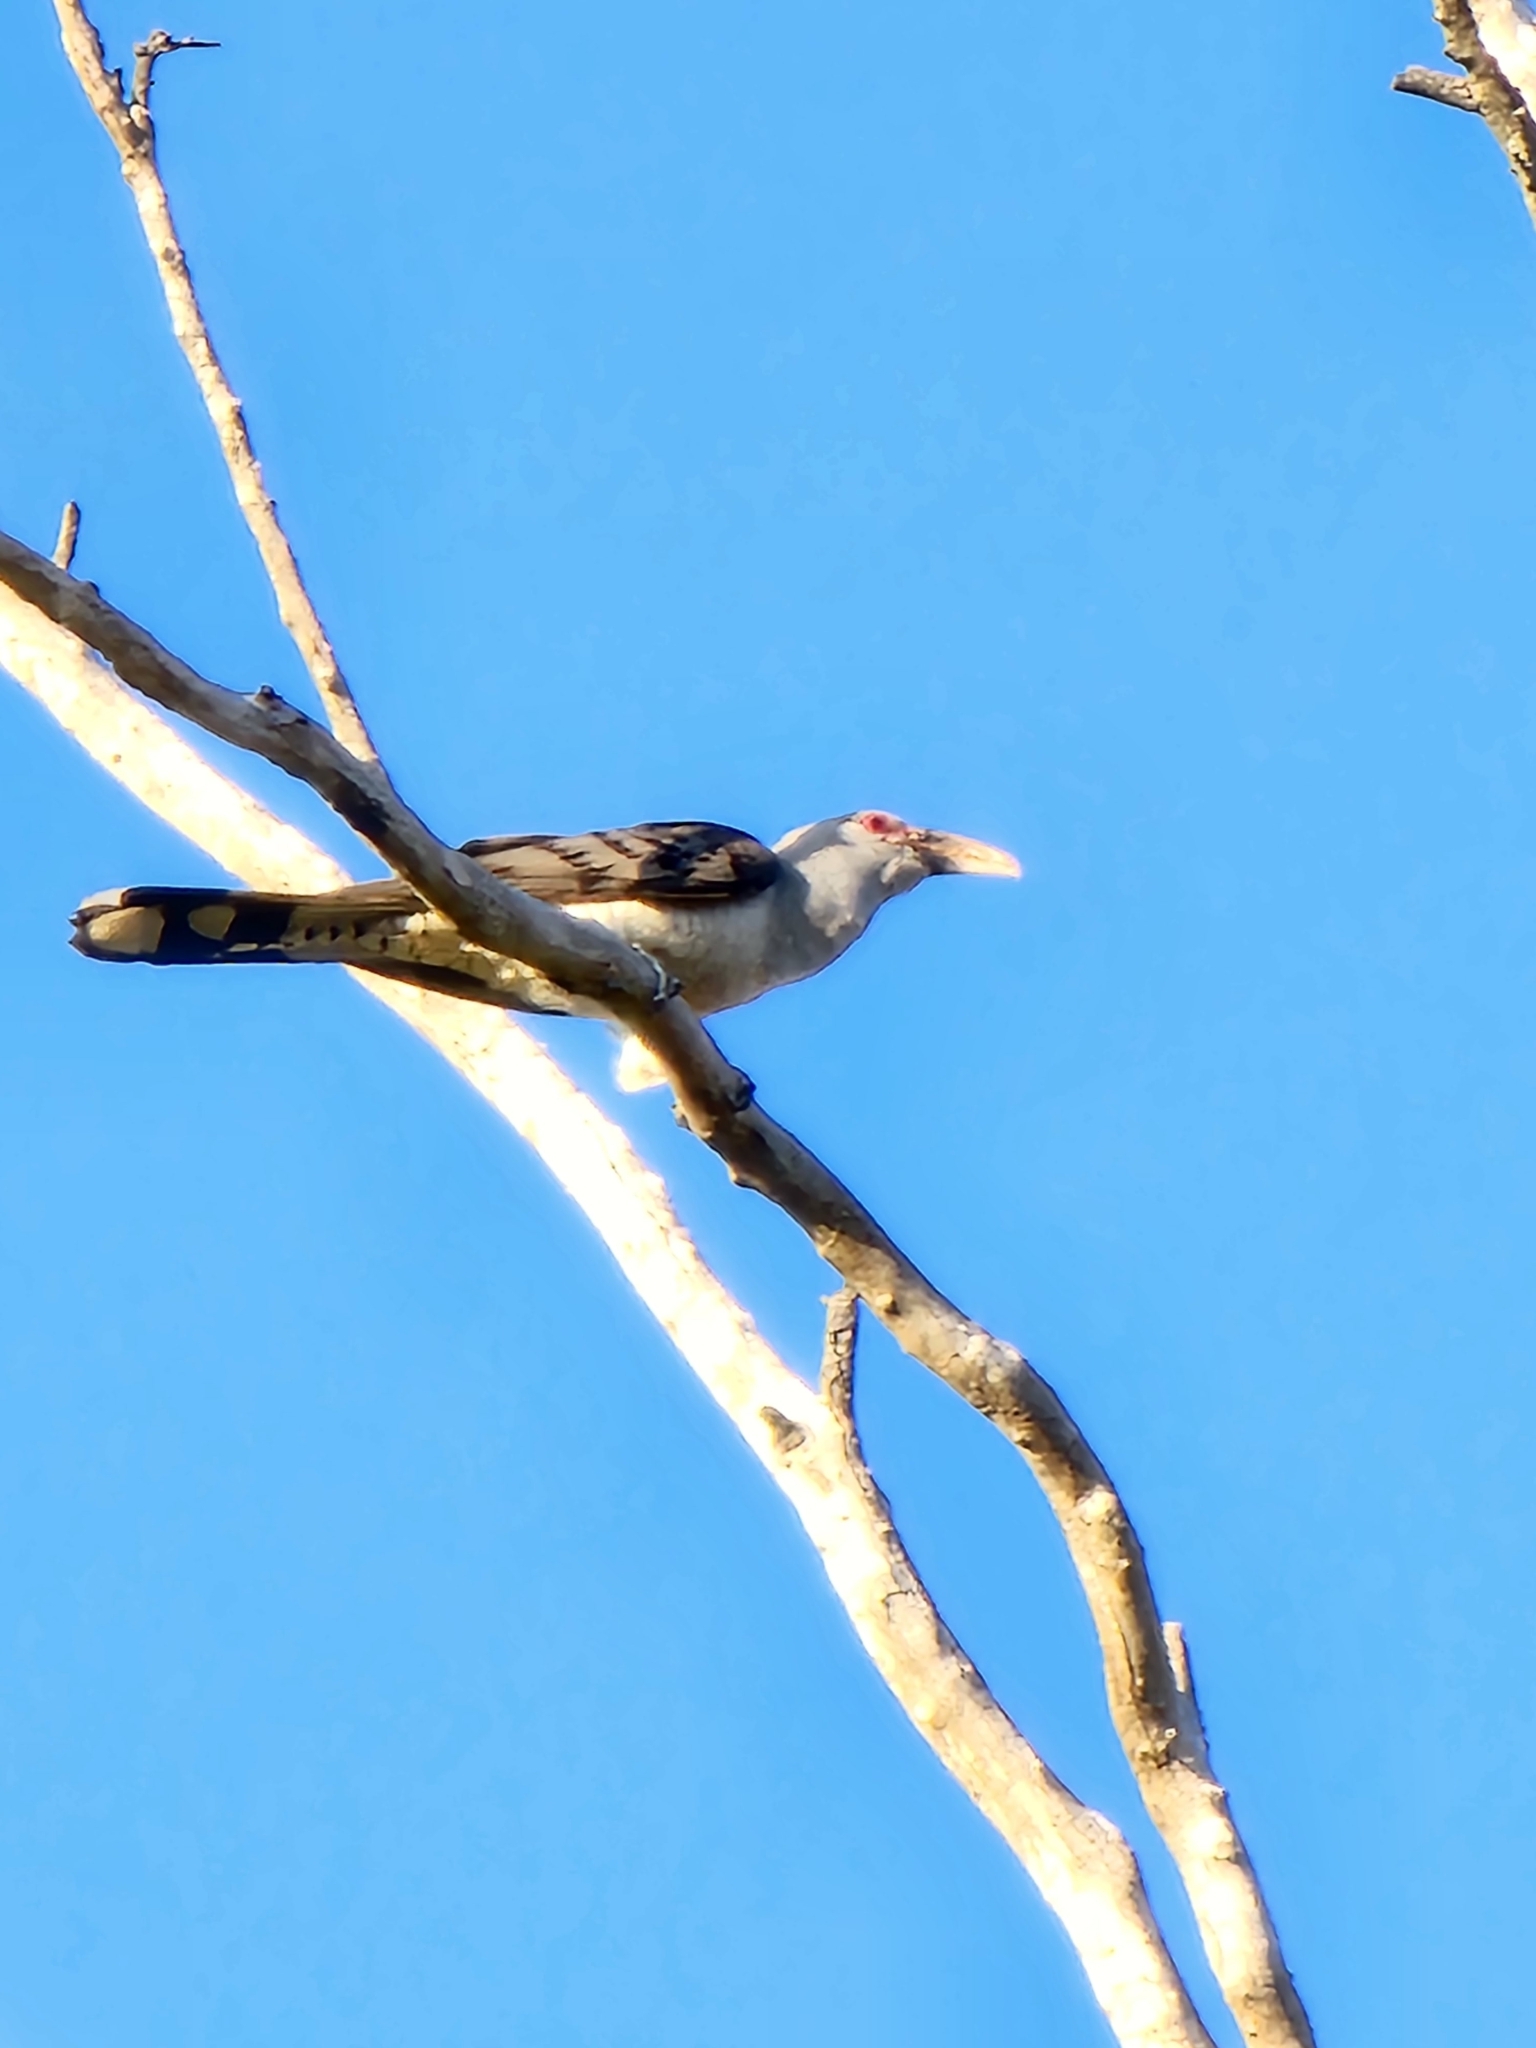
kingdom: Animalia
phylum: Chordata
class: Aves
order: Cuculiformes
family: Cuculidae
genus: Scythrops
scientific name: Scythrops novaehollandiae
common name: Channel-billed cuckoo
